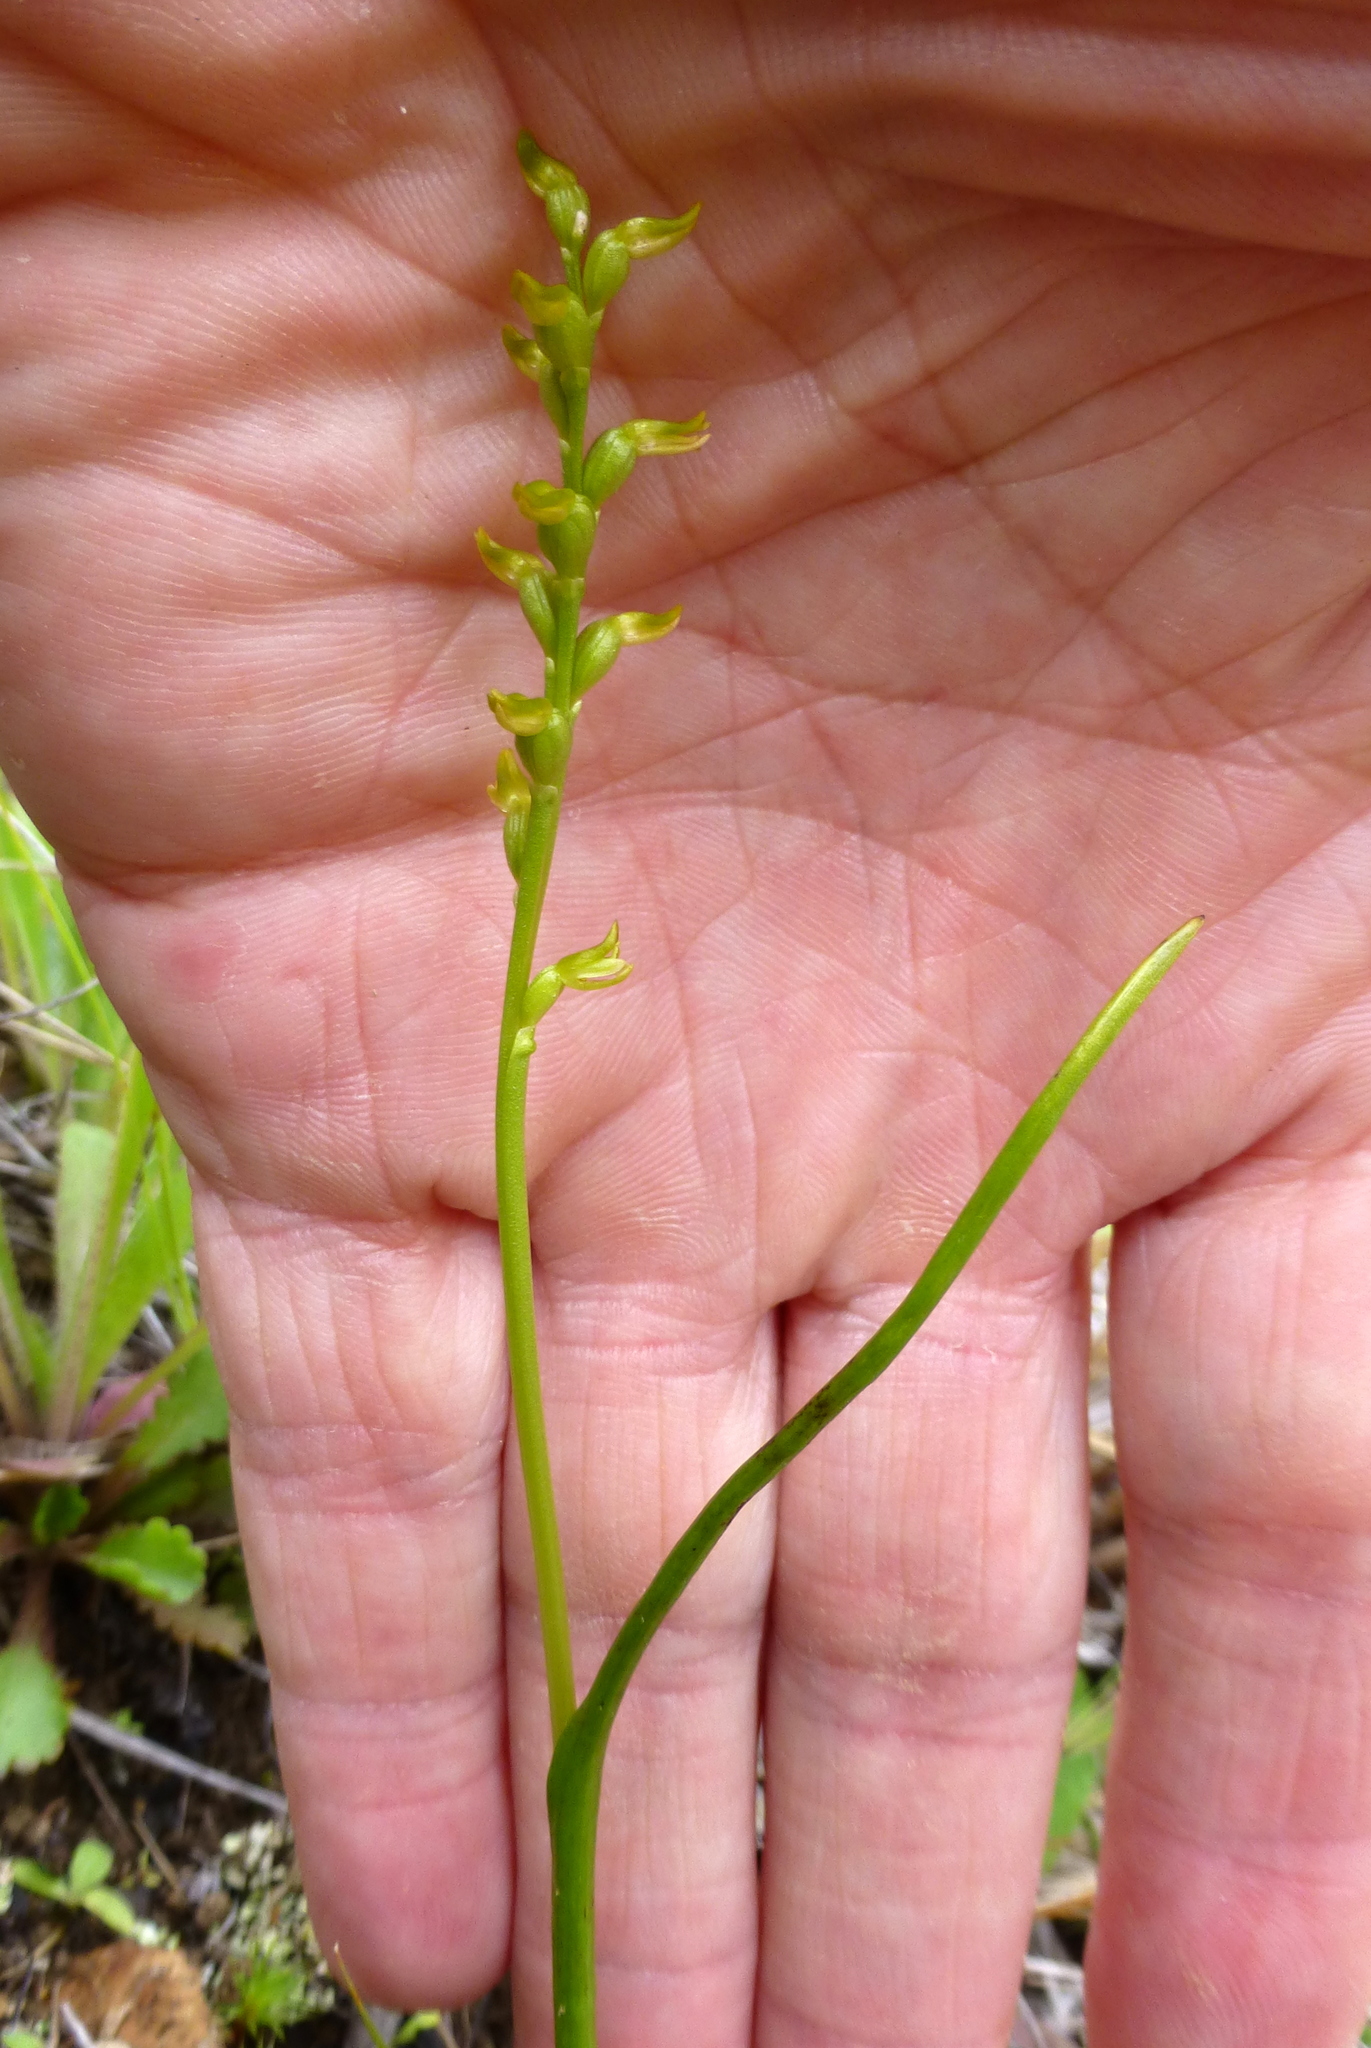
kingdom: Plantae
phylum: Tracheophyta
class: Liliopsida
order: Asparagales
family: Orchidaceae
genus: Prasophyllum
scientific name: Prasophyllum colensoi
